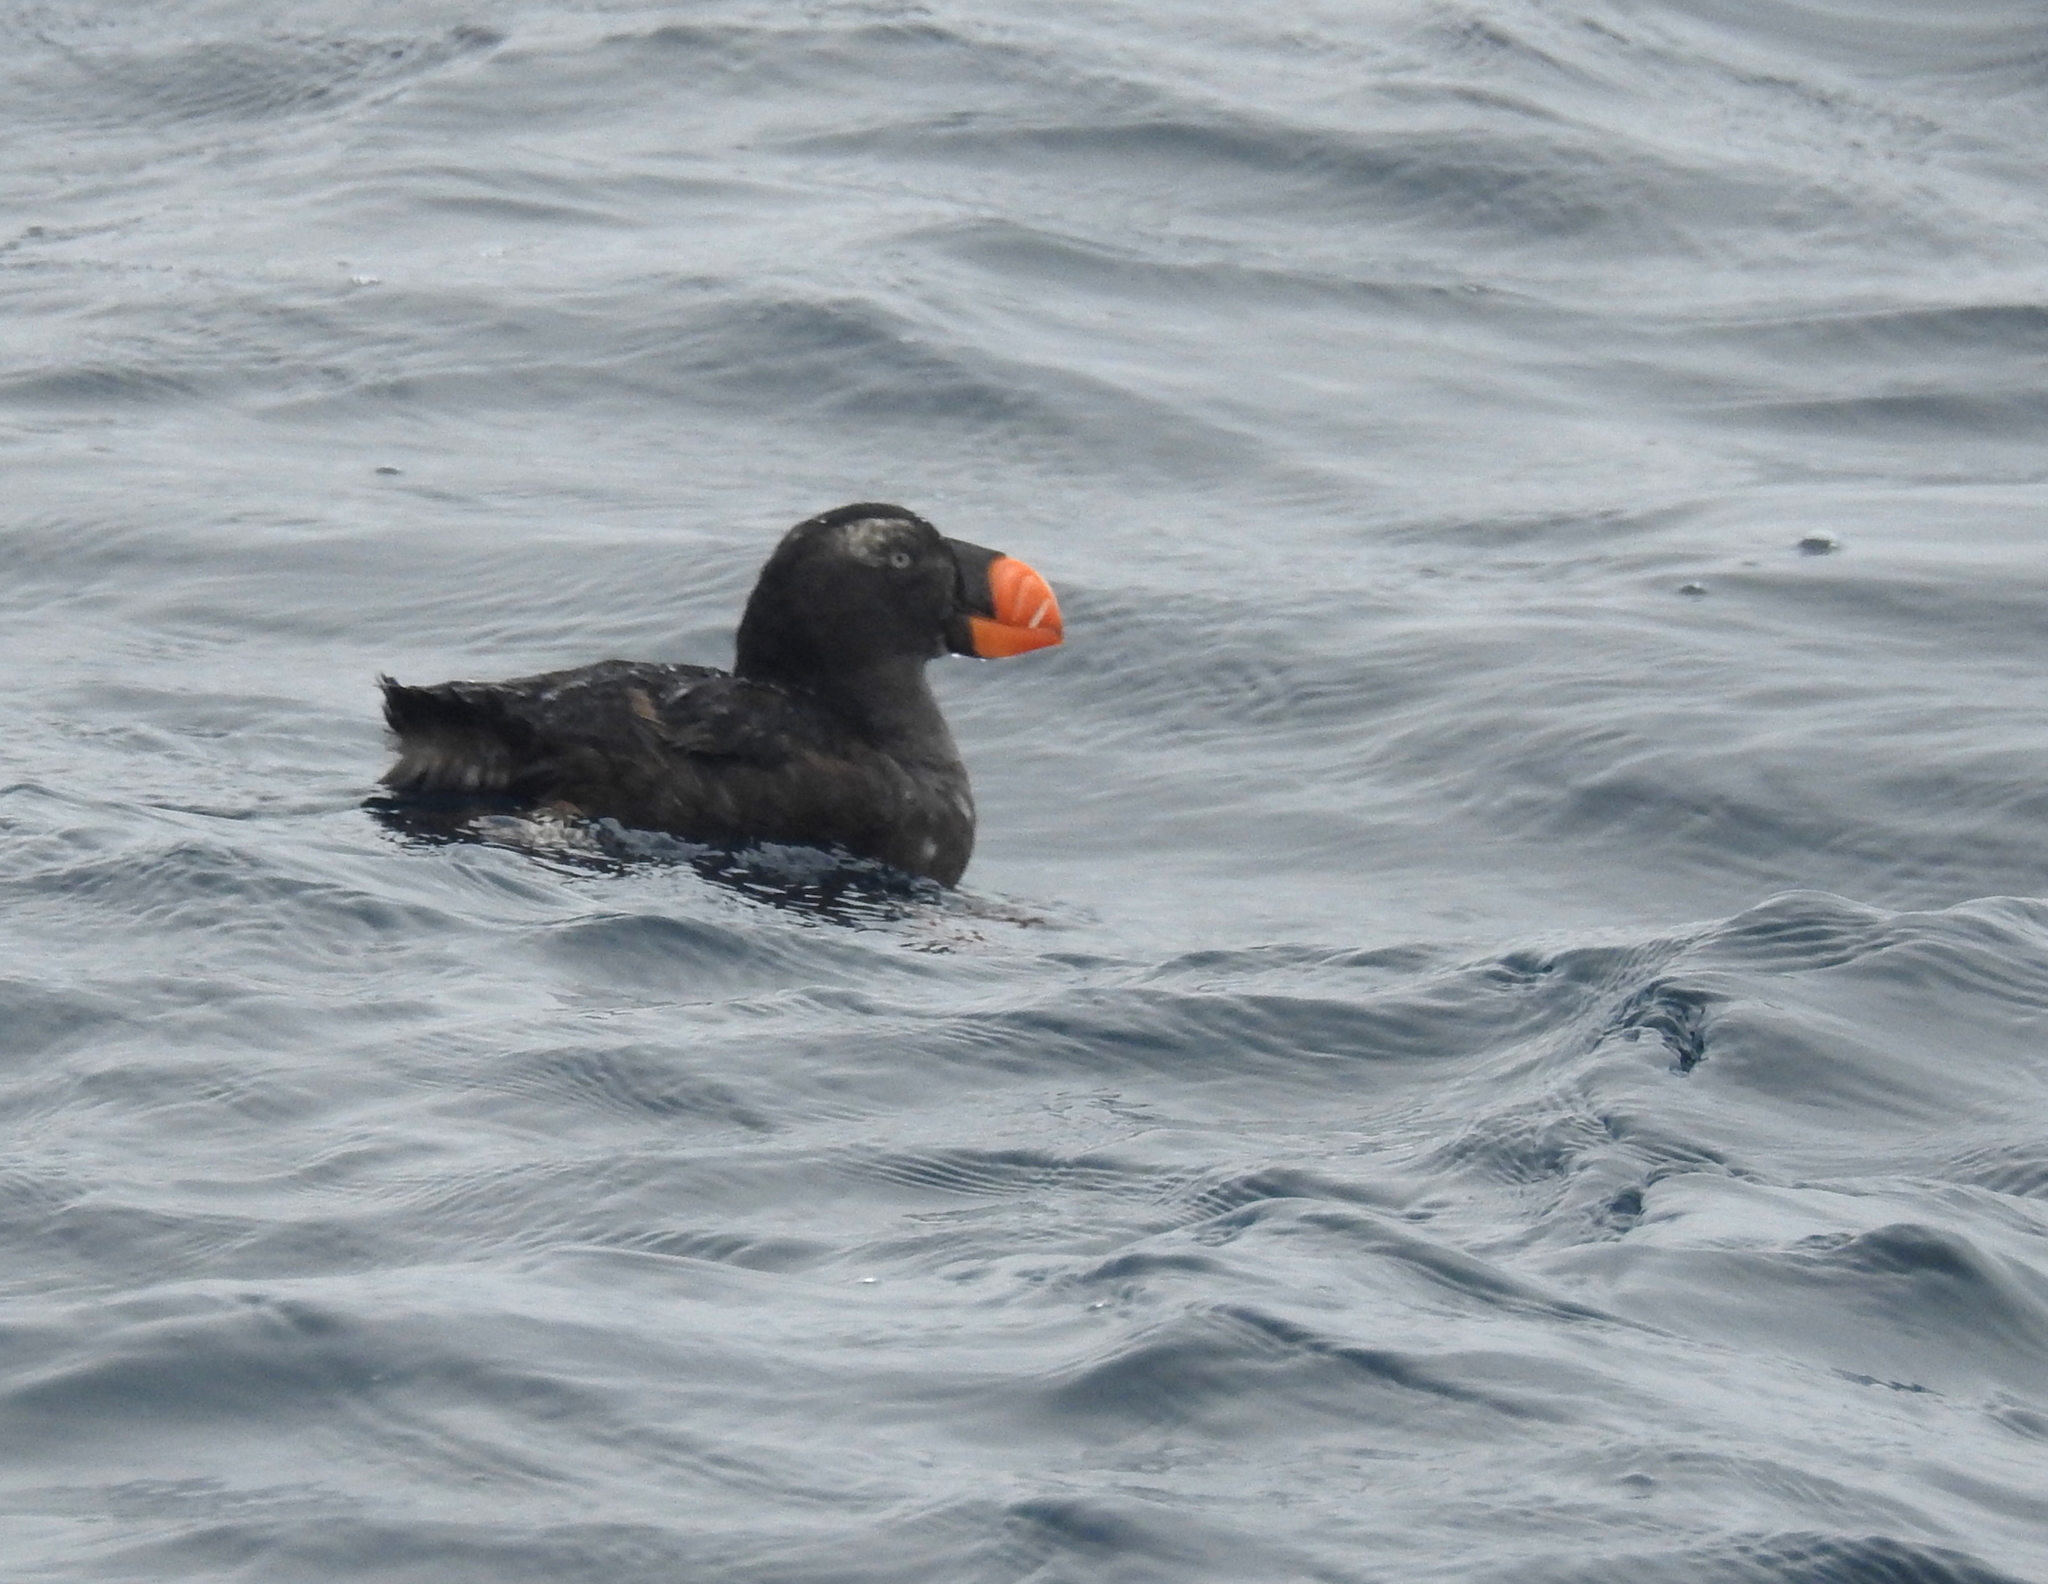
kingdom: Animalia
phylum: Chordata
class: Aves
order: Charadriiformes
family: Alcidae
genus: Fratercula
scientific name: Fratercula cirrhata
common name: Tufted puffin
